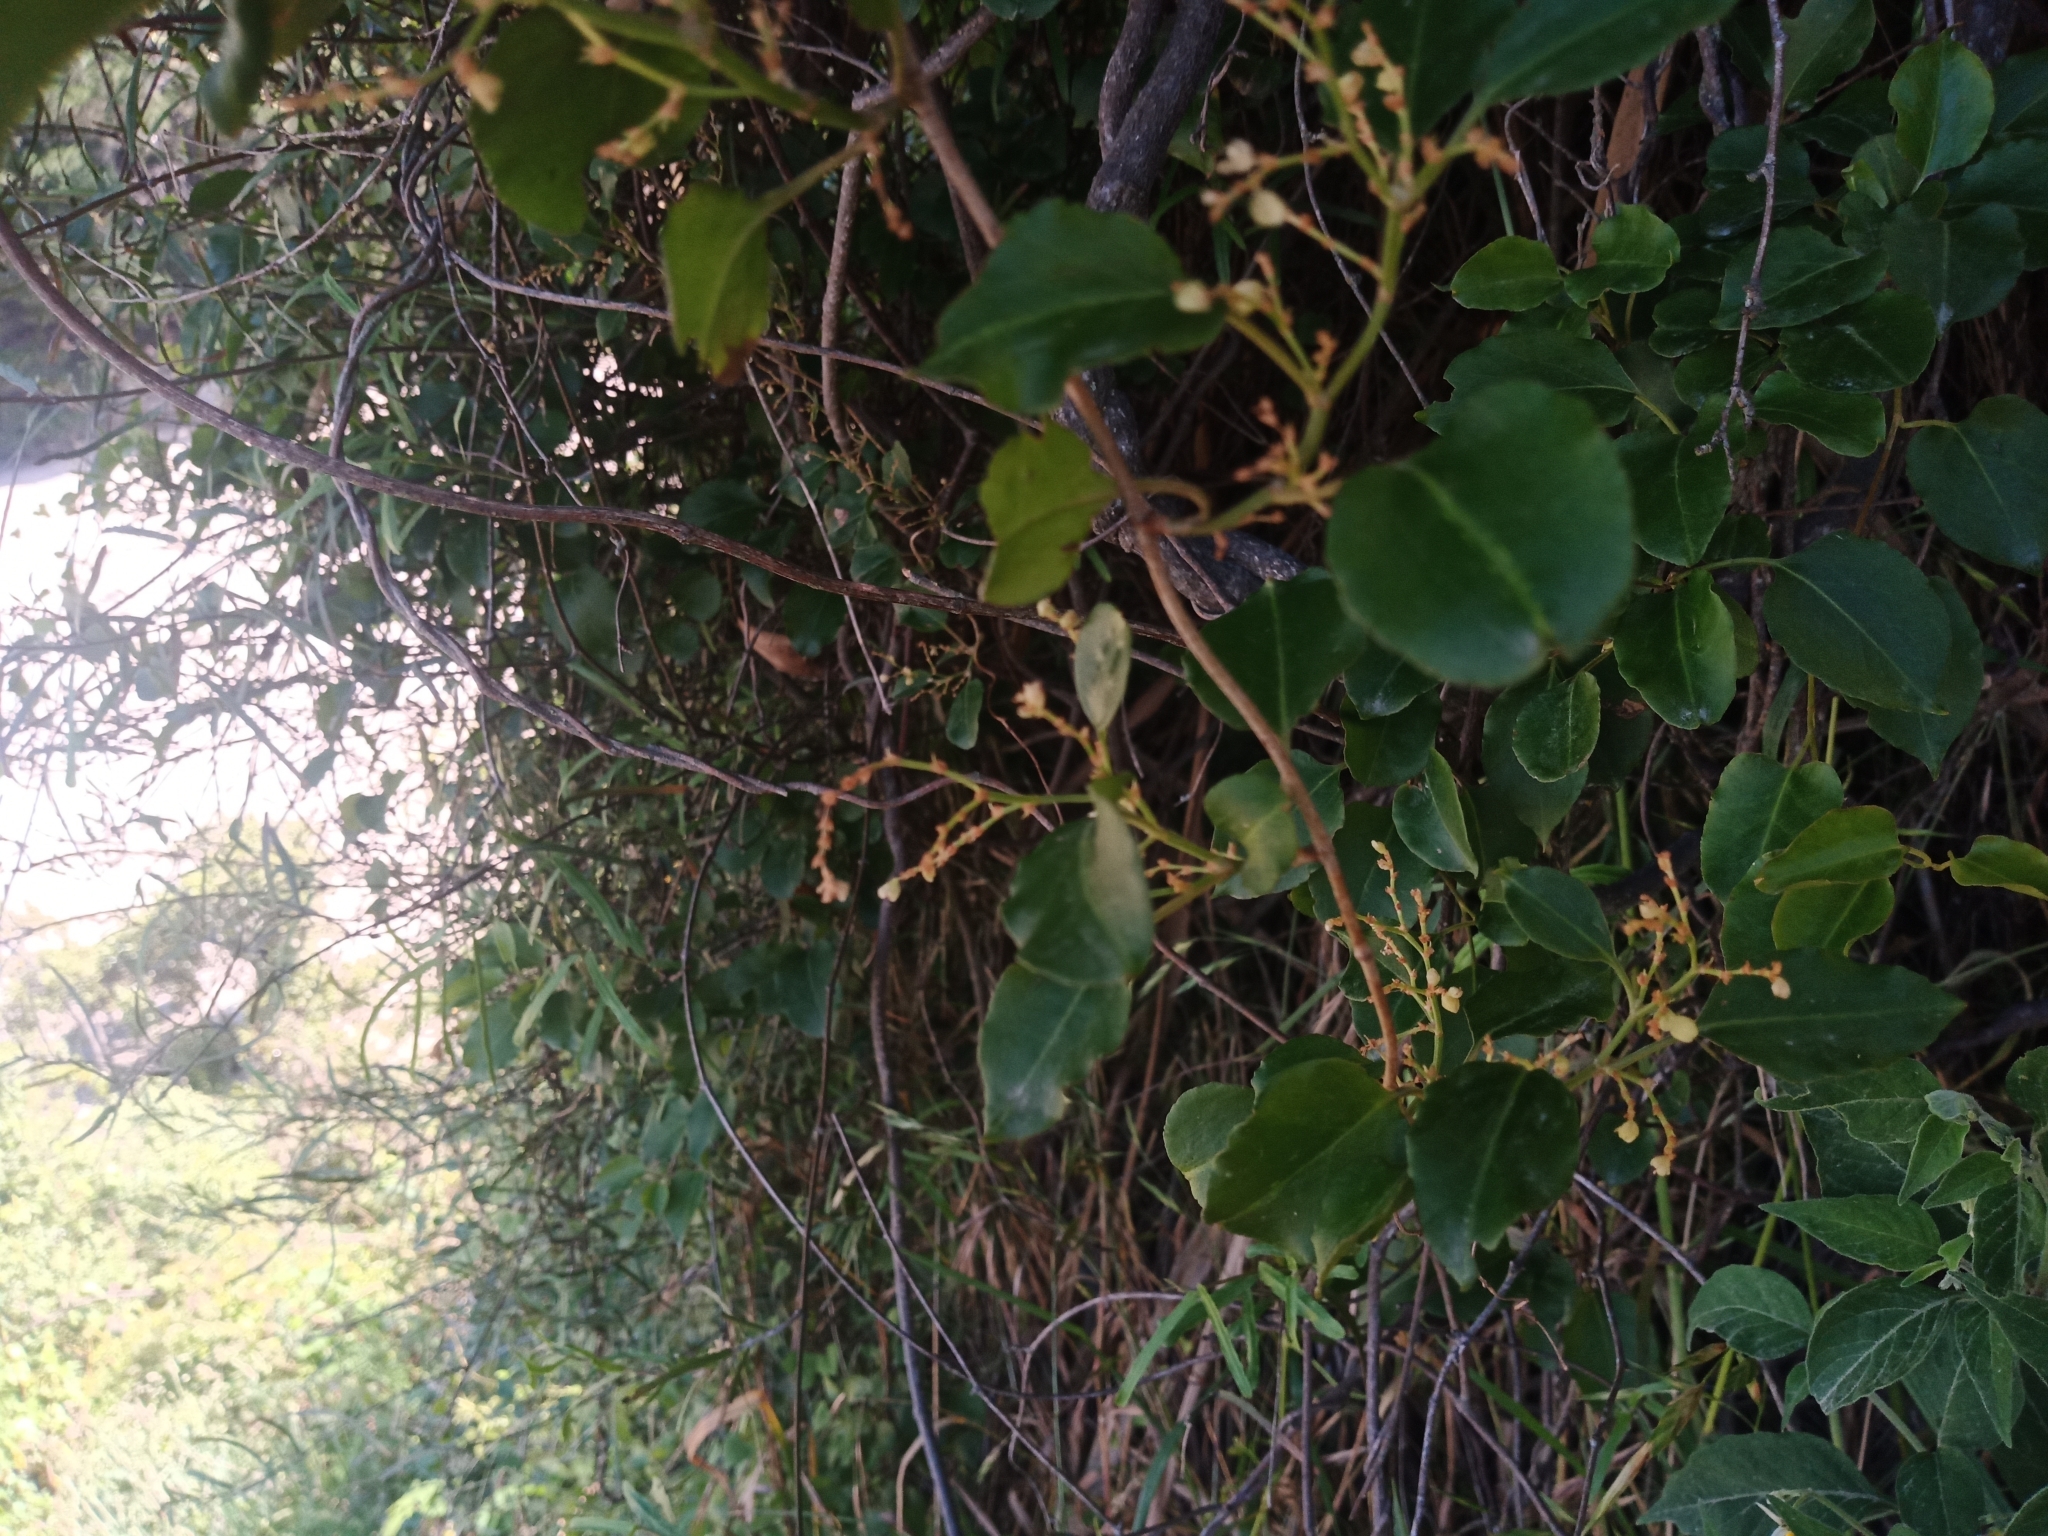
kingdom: Plantae
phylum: Tracheophyta
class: Magnoliopsida
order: Caryophyllales
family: Polygonaceae
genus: Muehlenbeckia
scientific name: Muehlenbeckia australis
